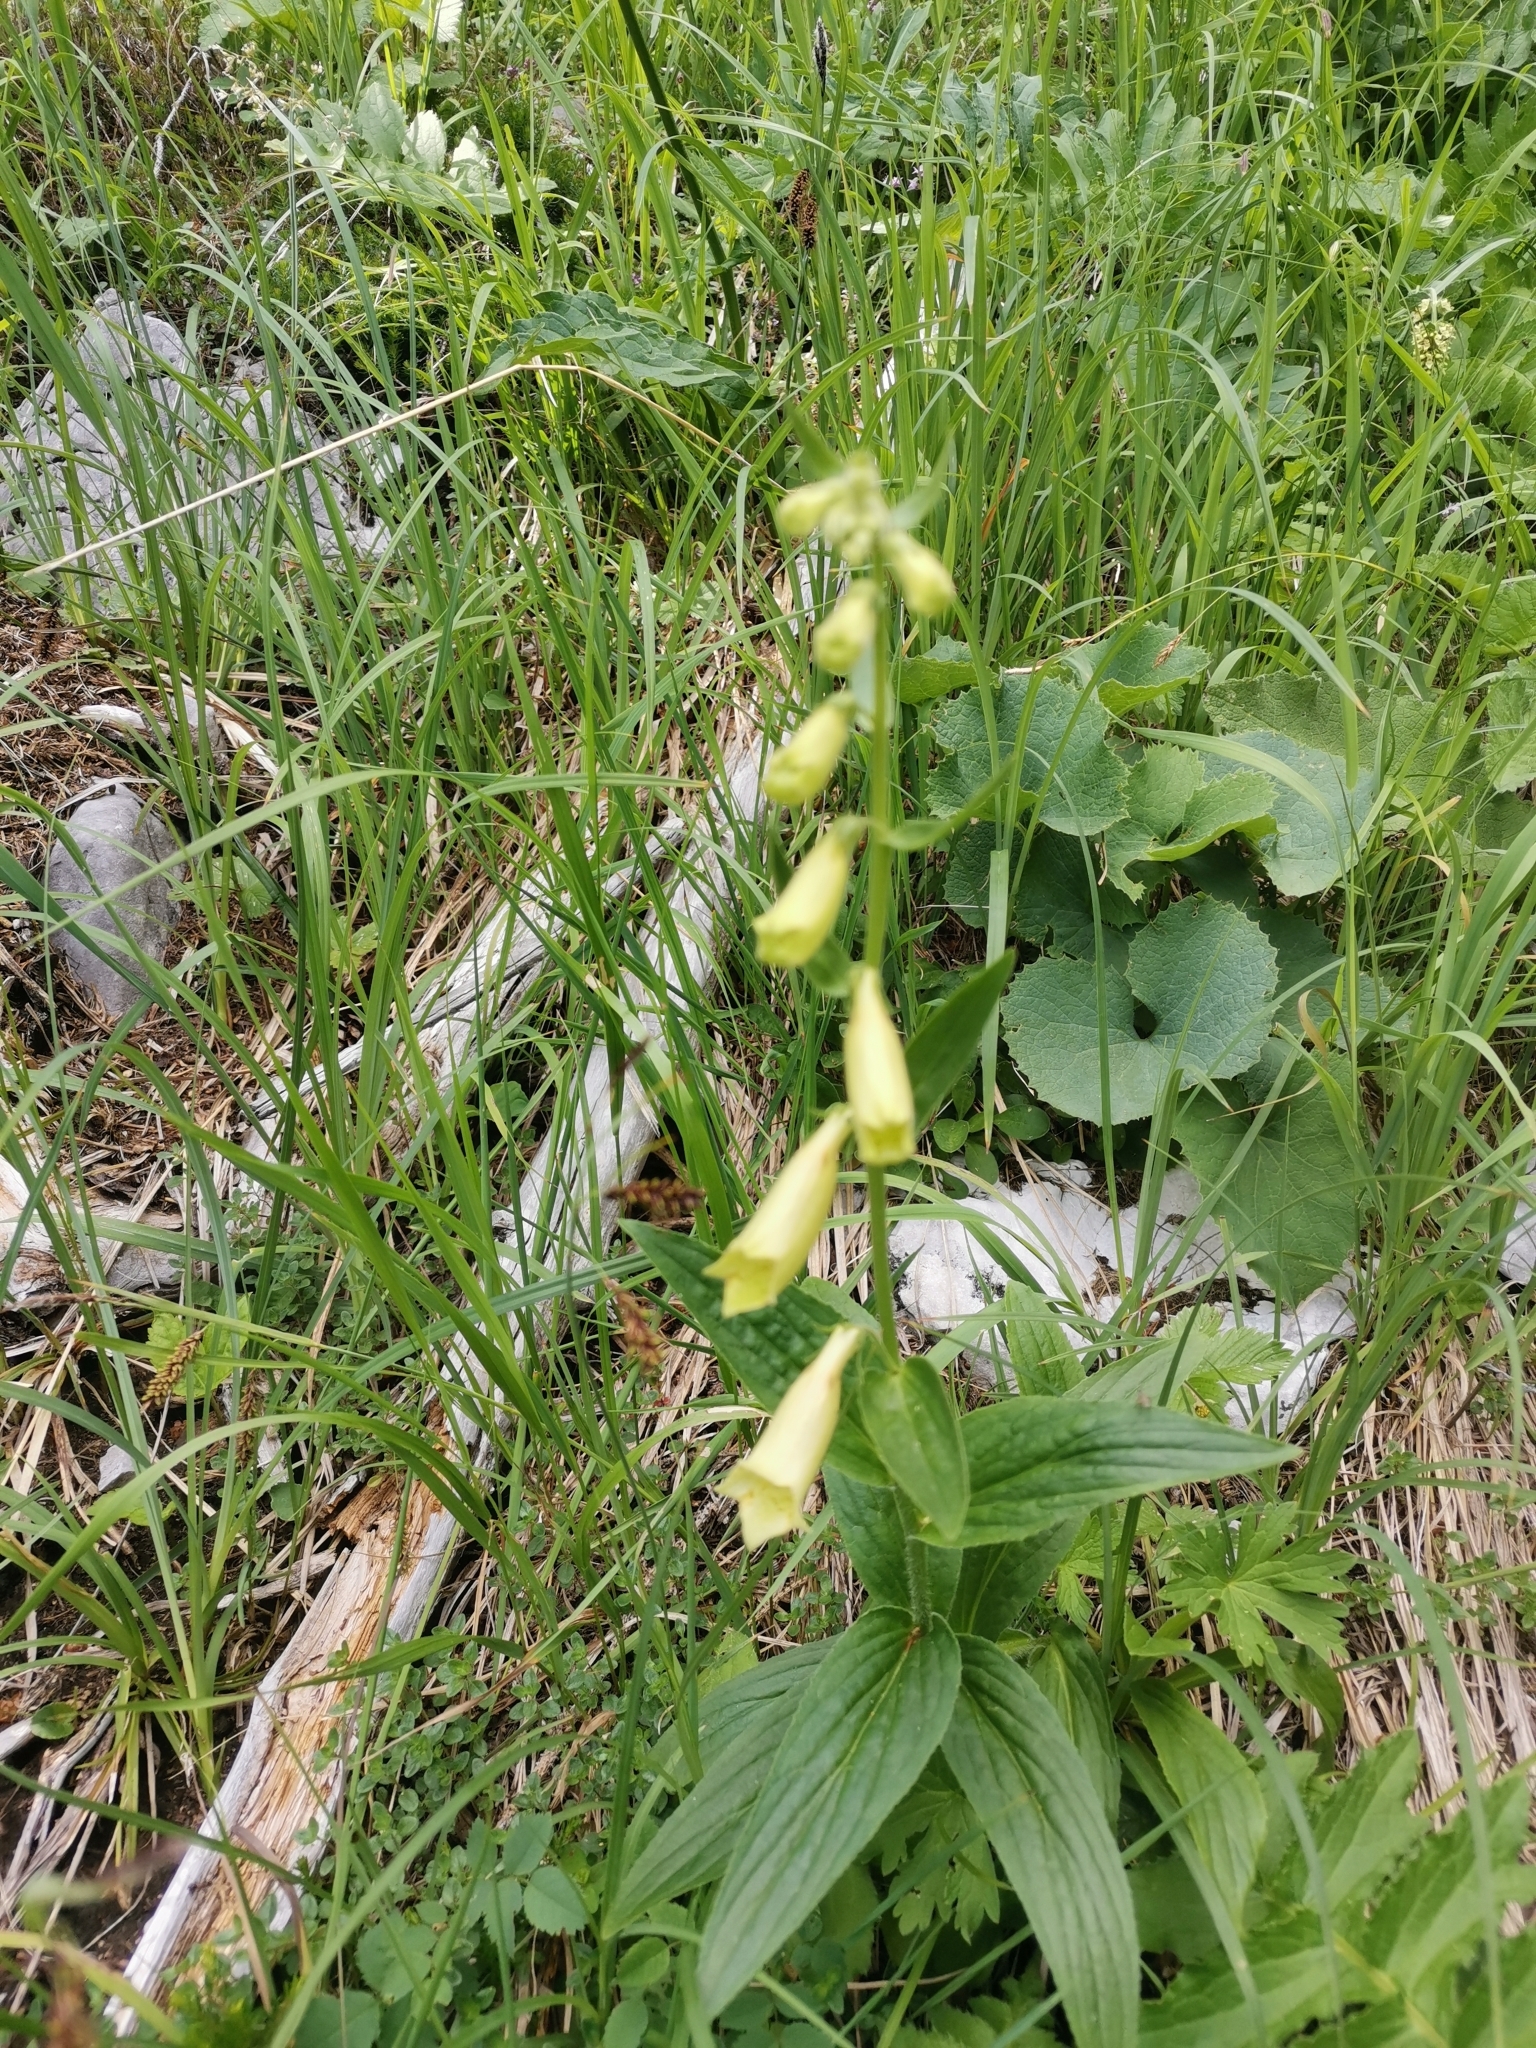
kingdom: Plantae
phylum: Tracheophyta
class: Magnoliopsida
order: Lamiales
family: Plantaginaceae
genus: Digitalis
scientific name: Digitalis grandiflora
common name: Yellow foxglove
